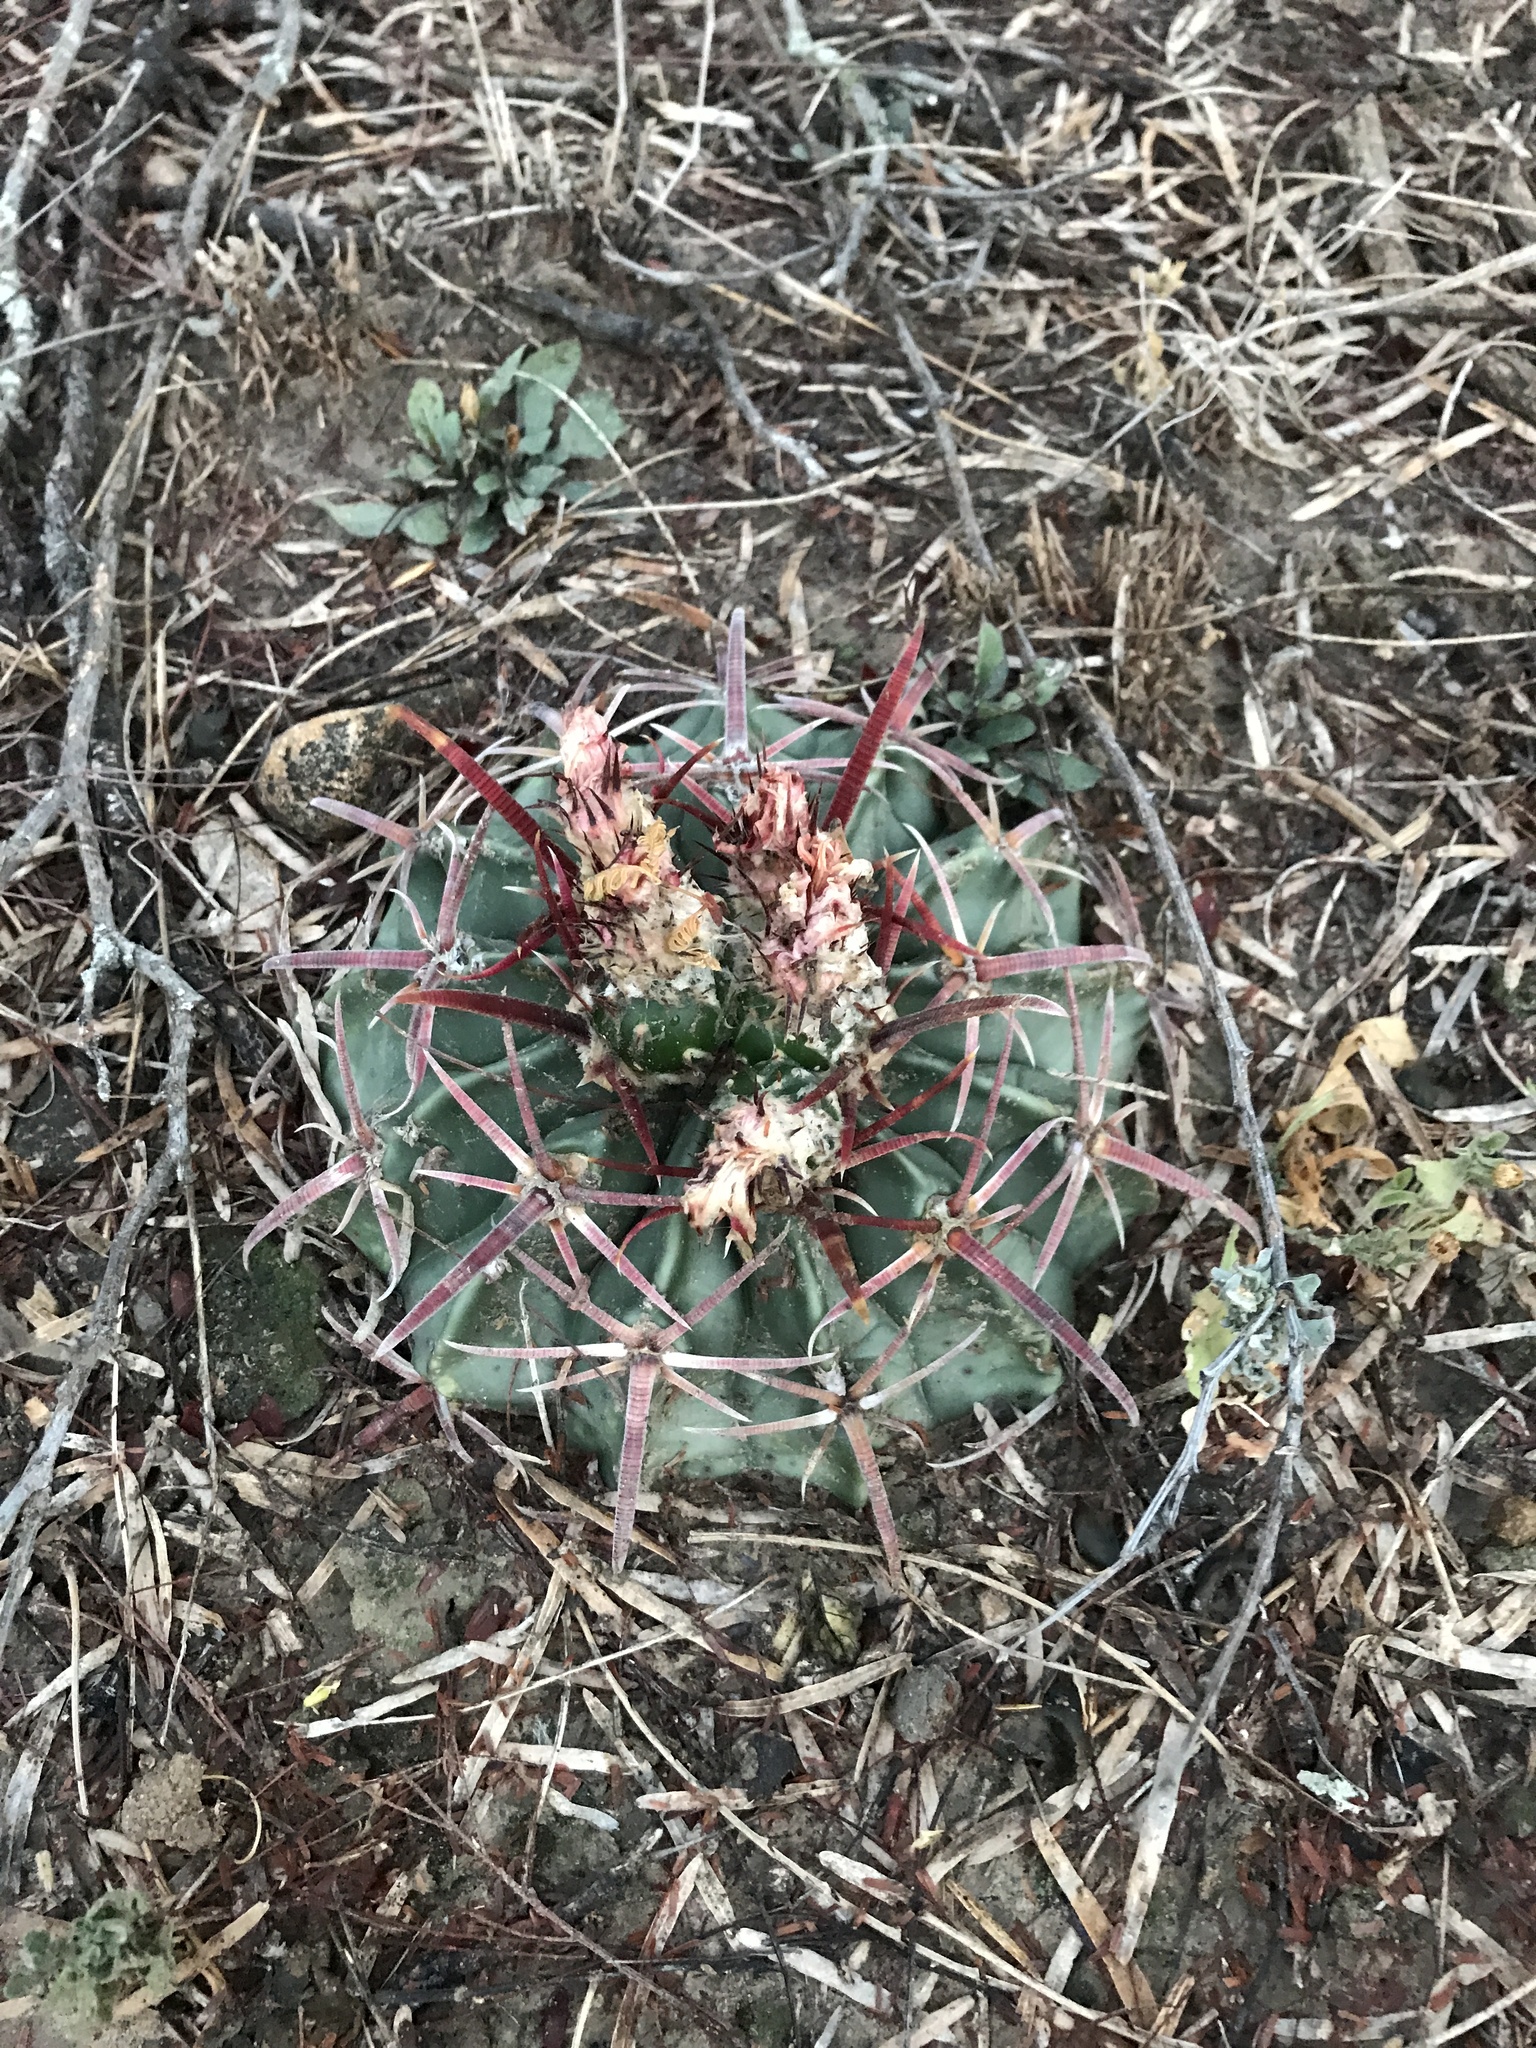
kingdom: Plantae
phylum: Tracheophyta
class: Magnoliopsida
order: Caryophyllales
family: Cactaceae
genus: Echinocactus
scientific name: Echinocactus texensis
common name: Devil's pincushion
